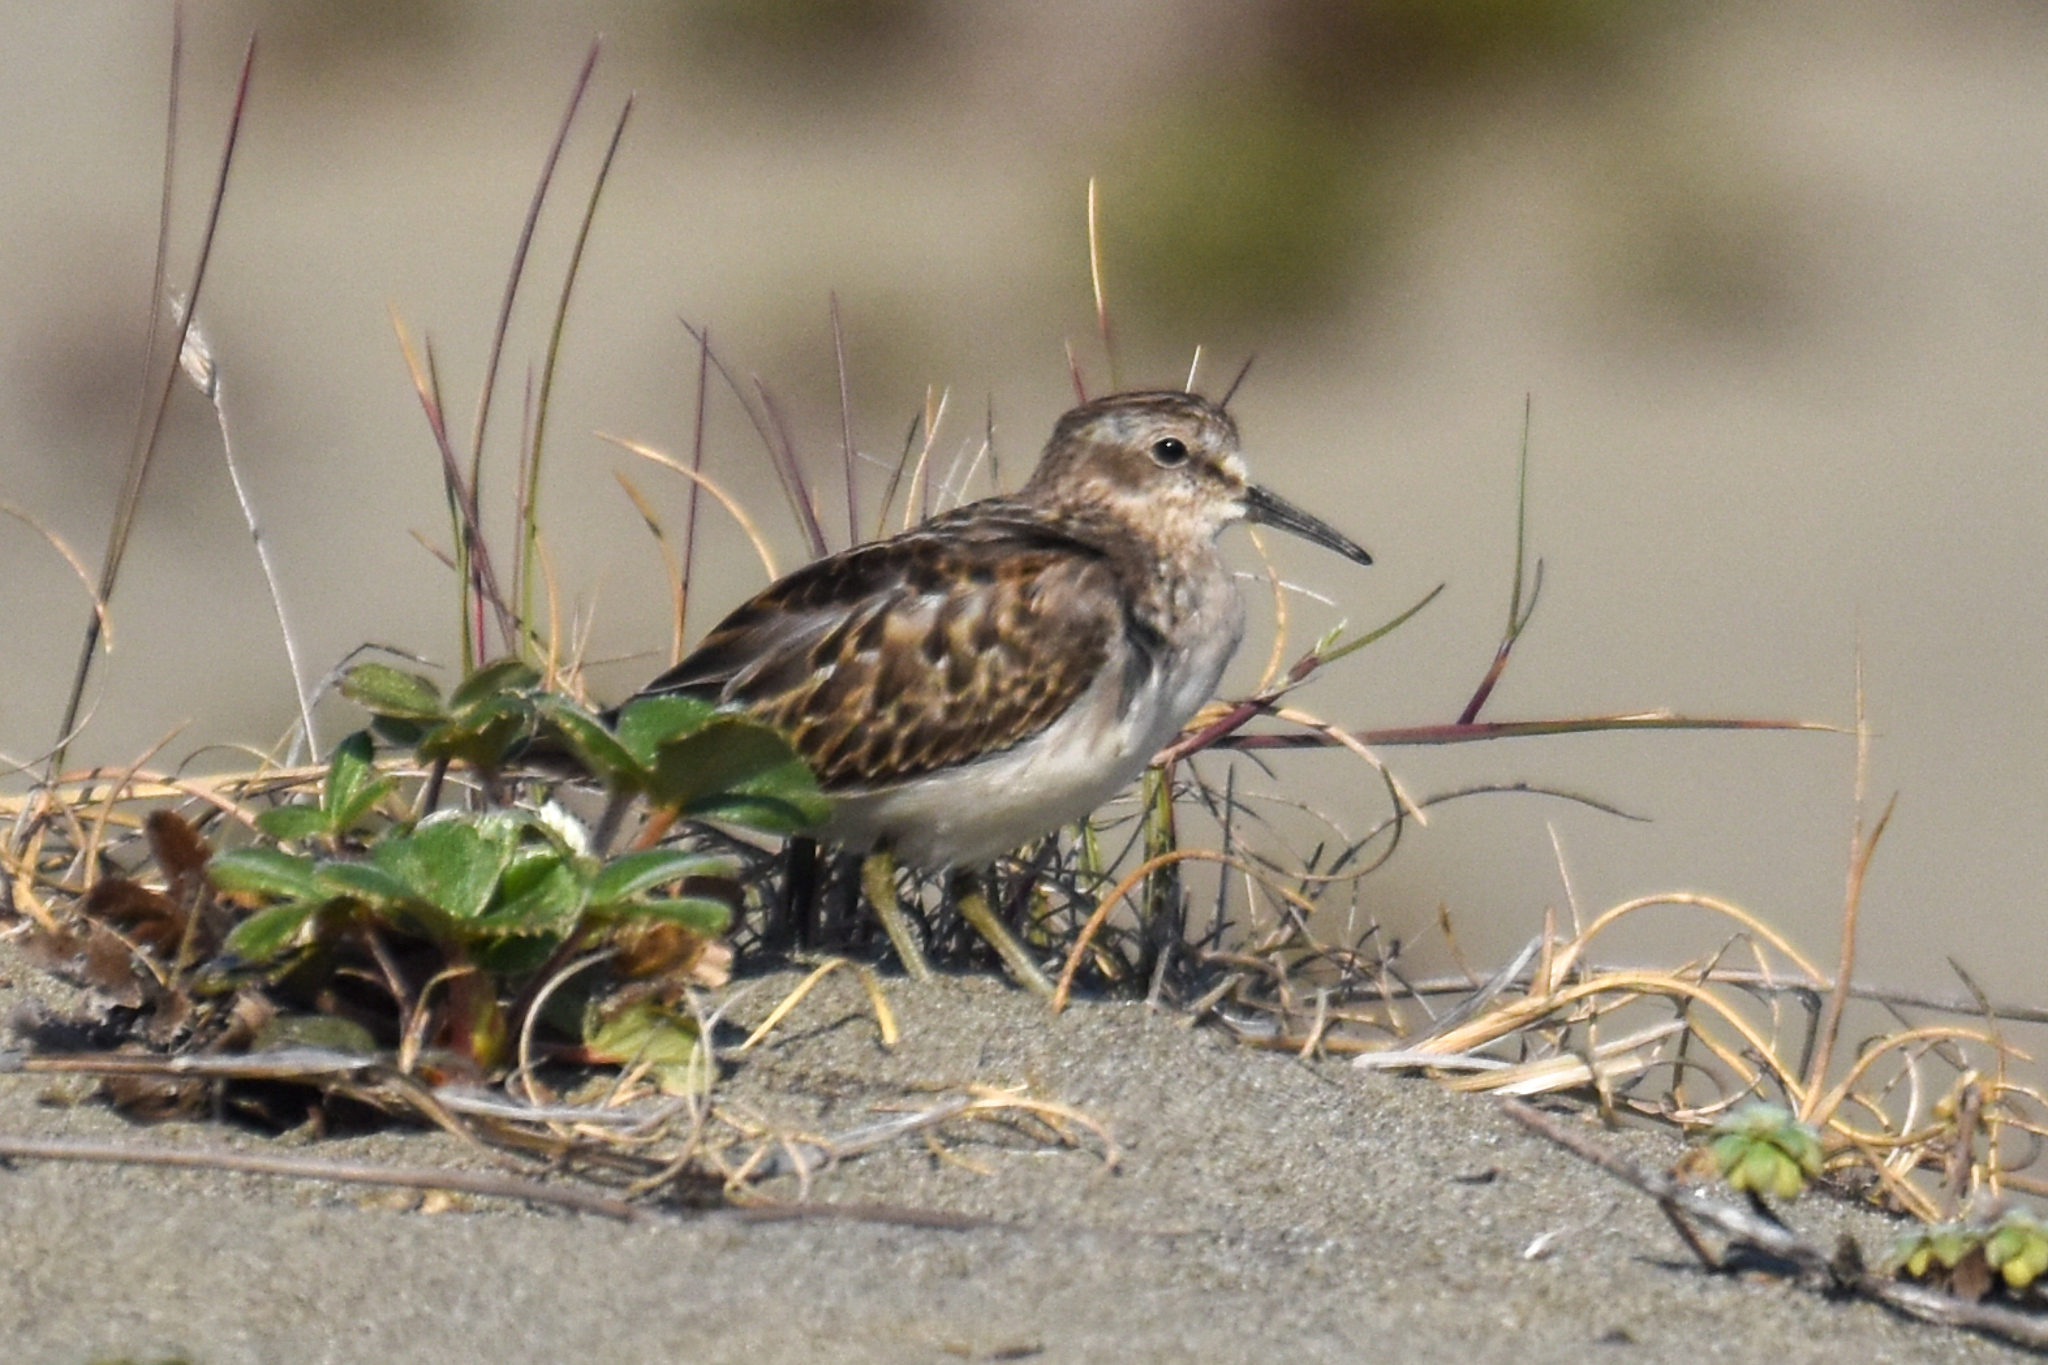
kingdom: Animalia
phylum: Chordata
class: Aves
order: Charadriiformes
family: Scolopacidae
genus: Calidris
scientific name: Calidris minutilla
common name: Least sandpiper
